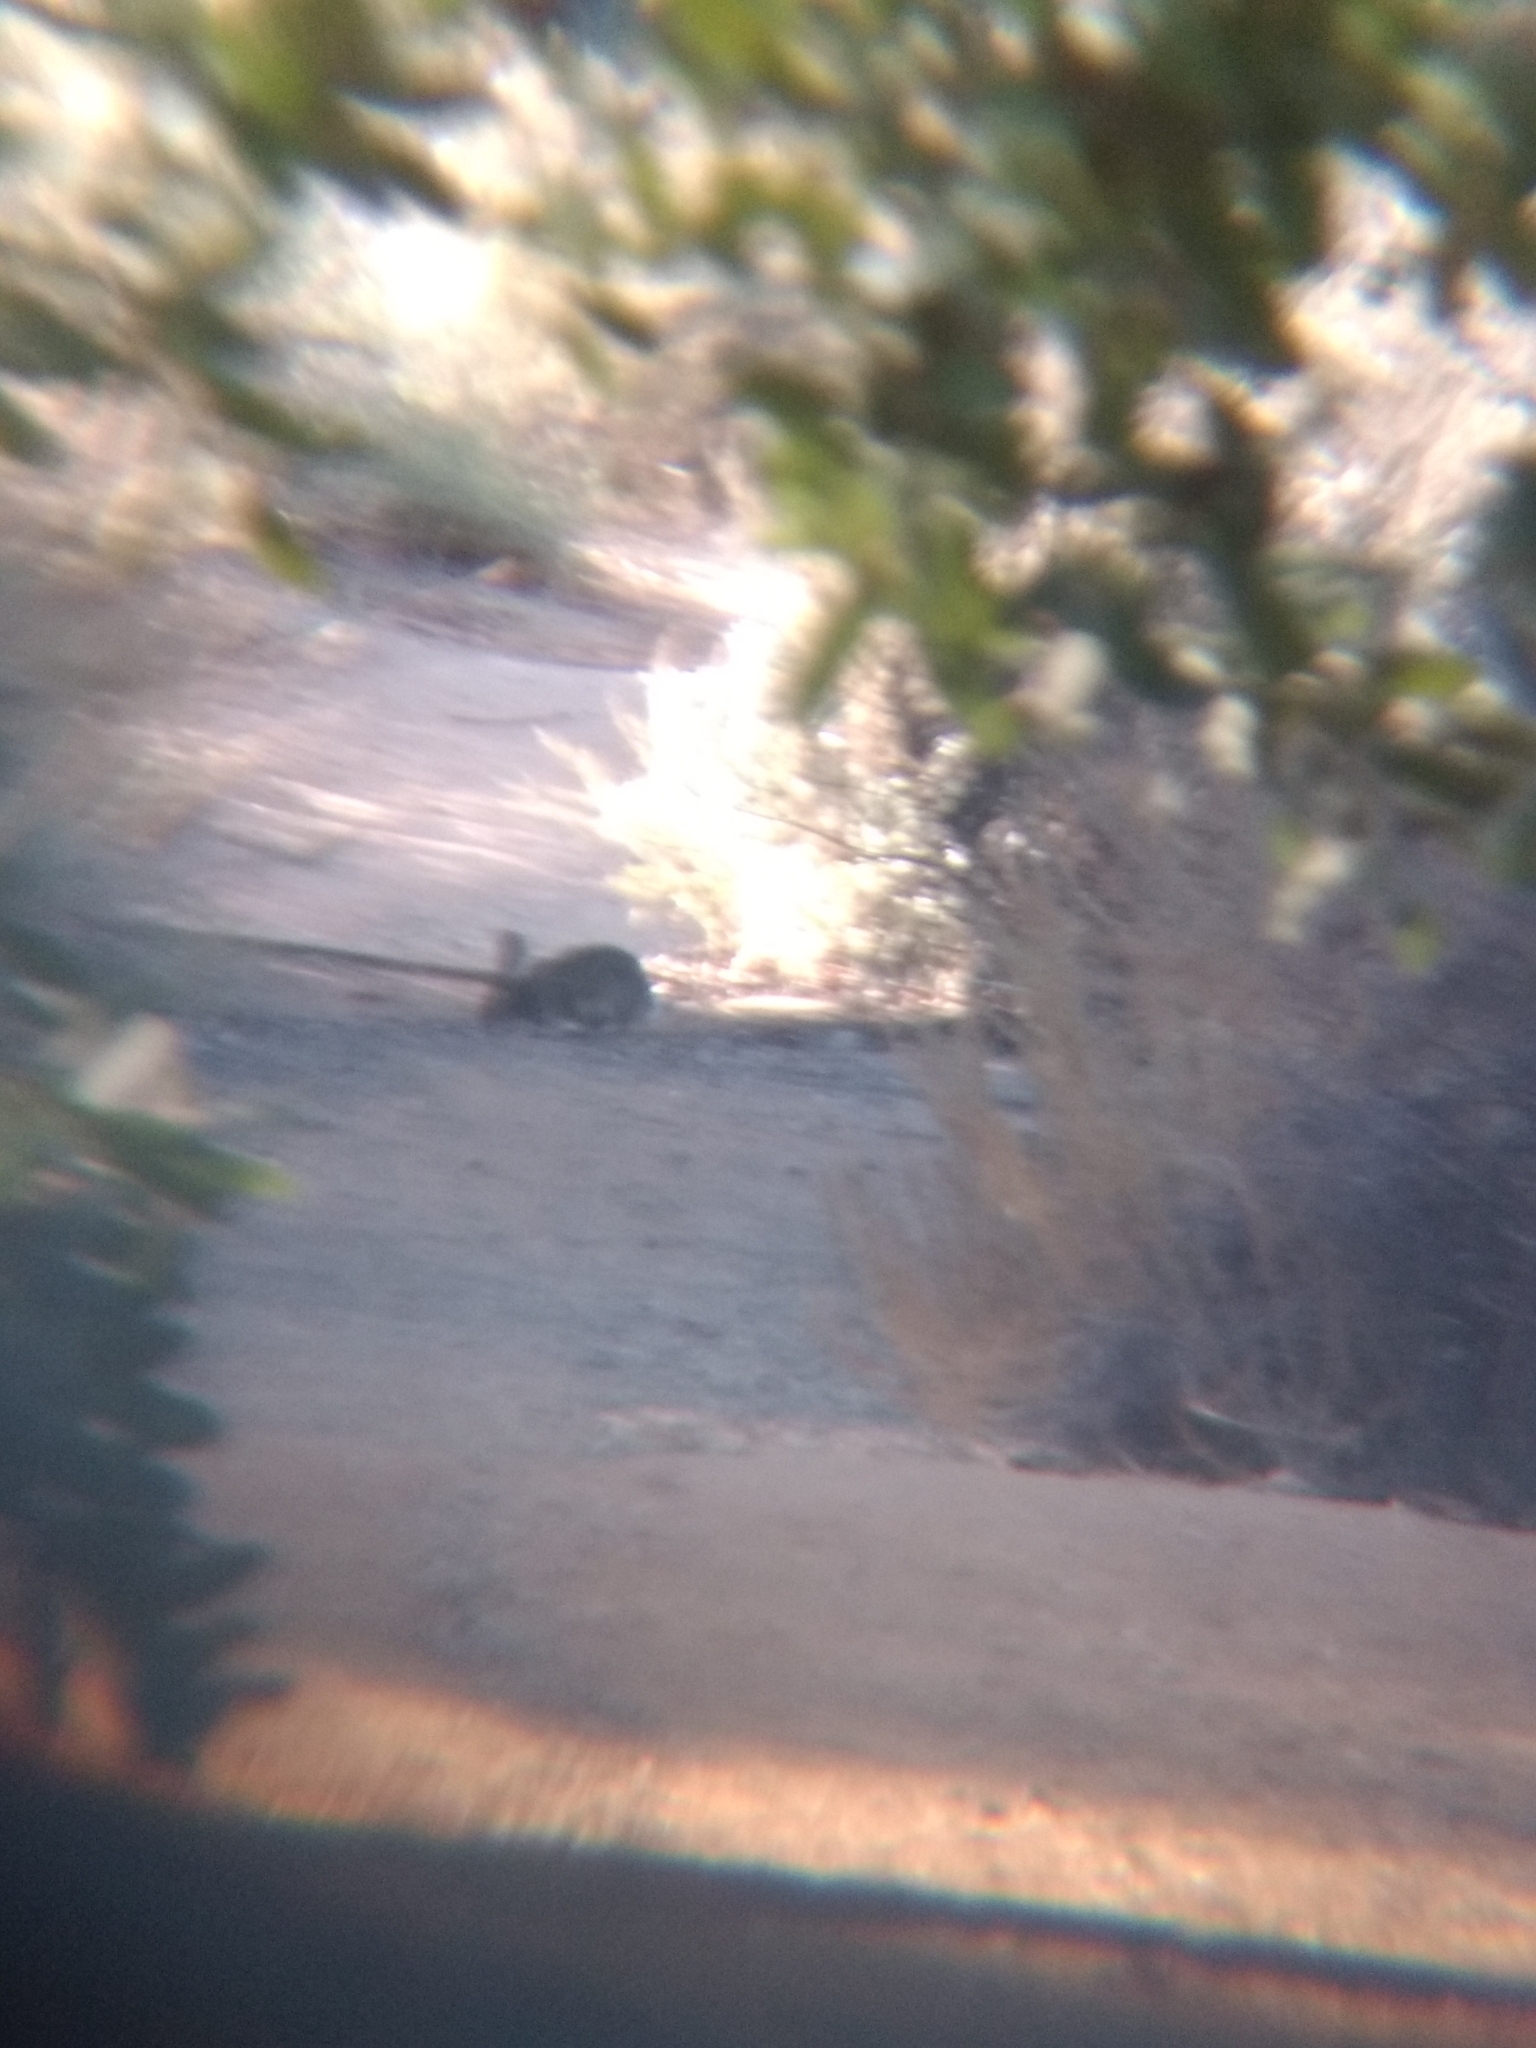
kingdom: Animalia
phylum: Chordata
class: Mammalia
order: Lagomorpha
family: Leporidae
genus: Sylvilagus
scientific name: Sylvilagus audubonii
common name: Desert cottontail
